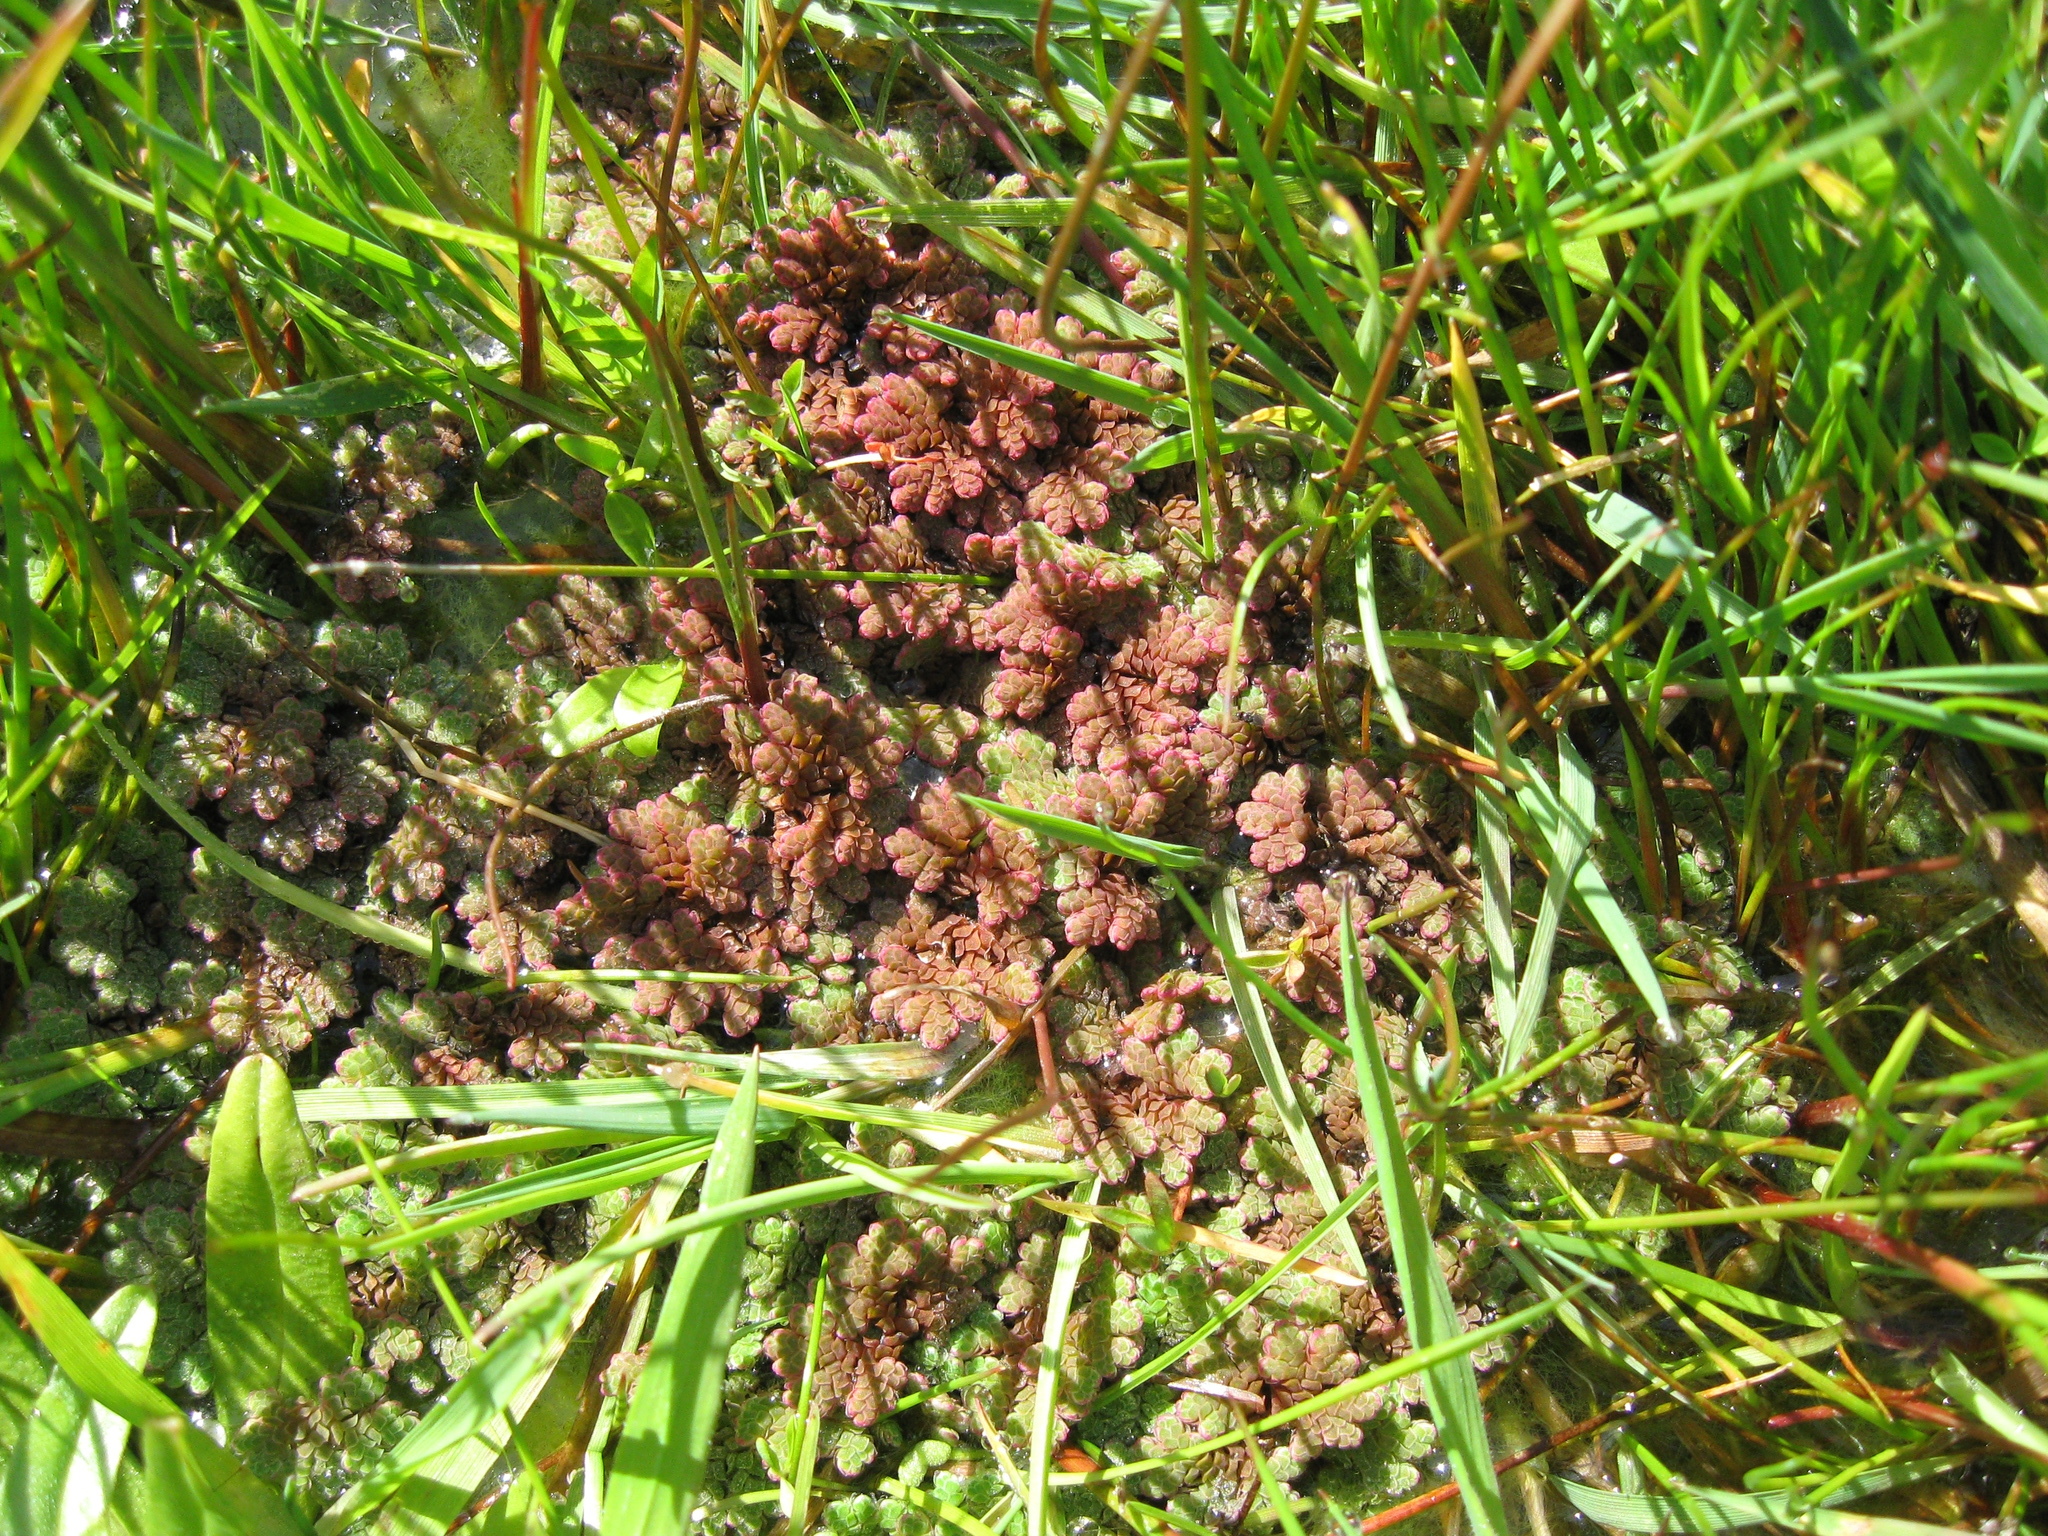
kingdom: Plantae
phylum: Tracheophyta
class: Polypodiopsida
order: Salviniales
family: Salviniaceae
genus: Azolla
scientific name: Azolla rubra
